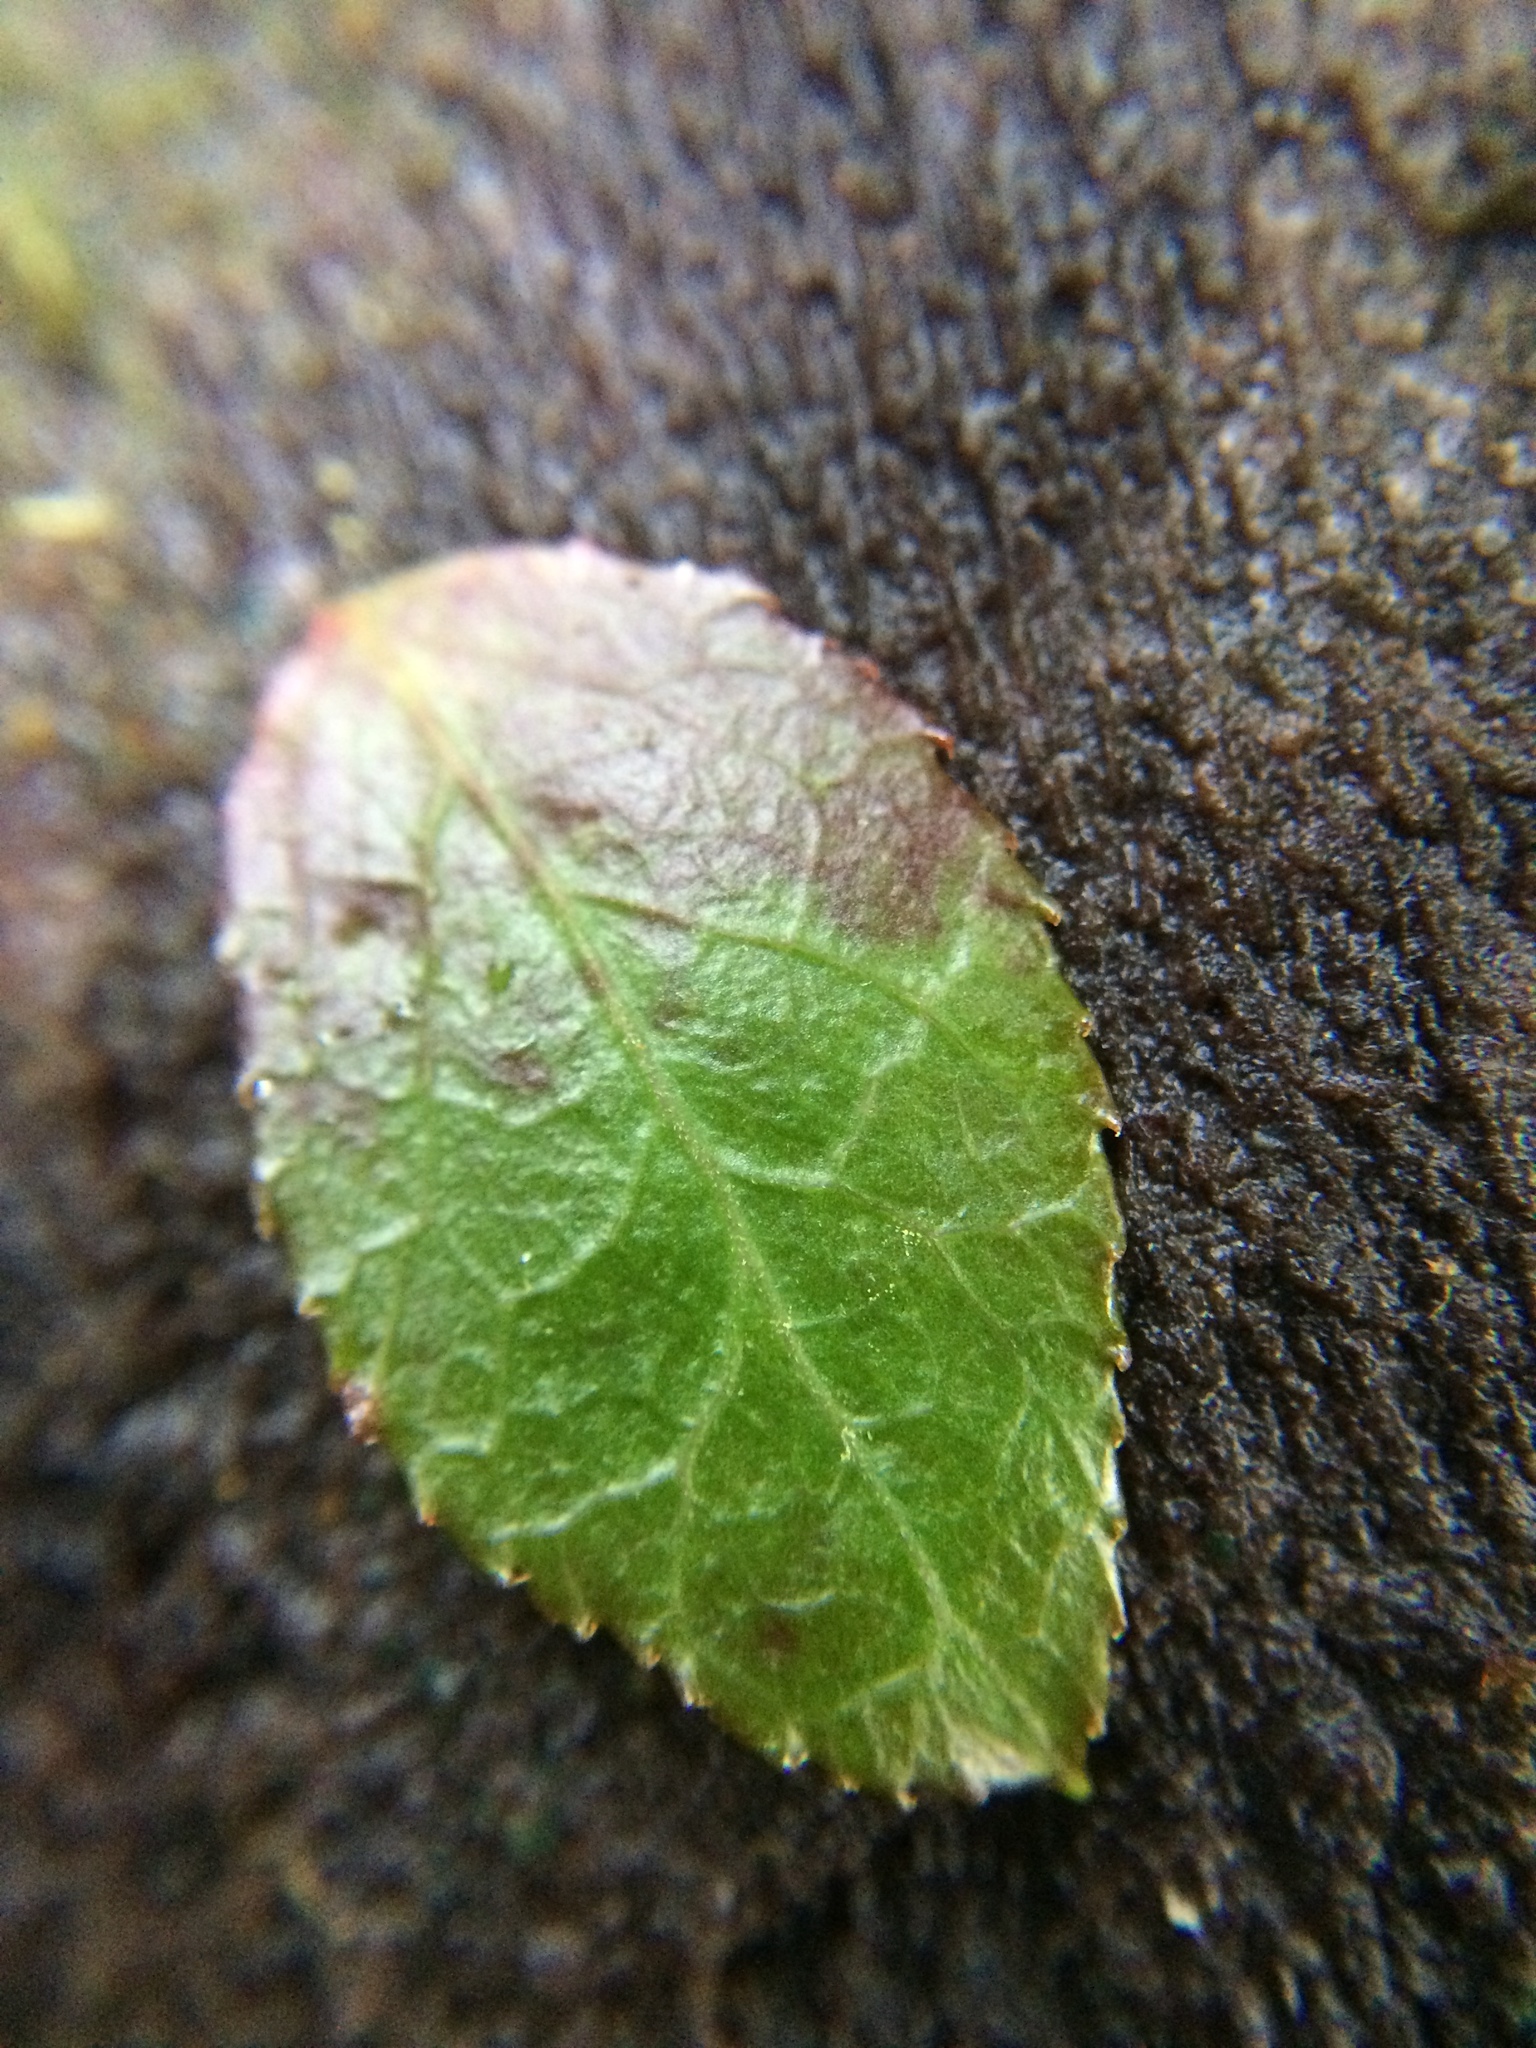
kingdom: Plantae
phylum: Tracheophyta
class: Magnoliopsida
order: Ericales
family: Ericaceae
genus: Vaccinium
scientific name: Vaccinium parvifolium
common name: Red-huckleberry
